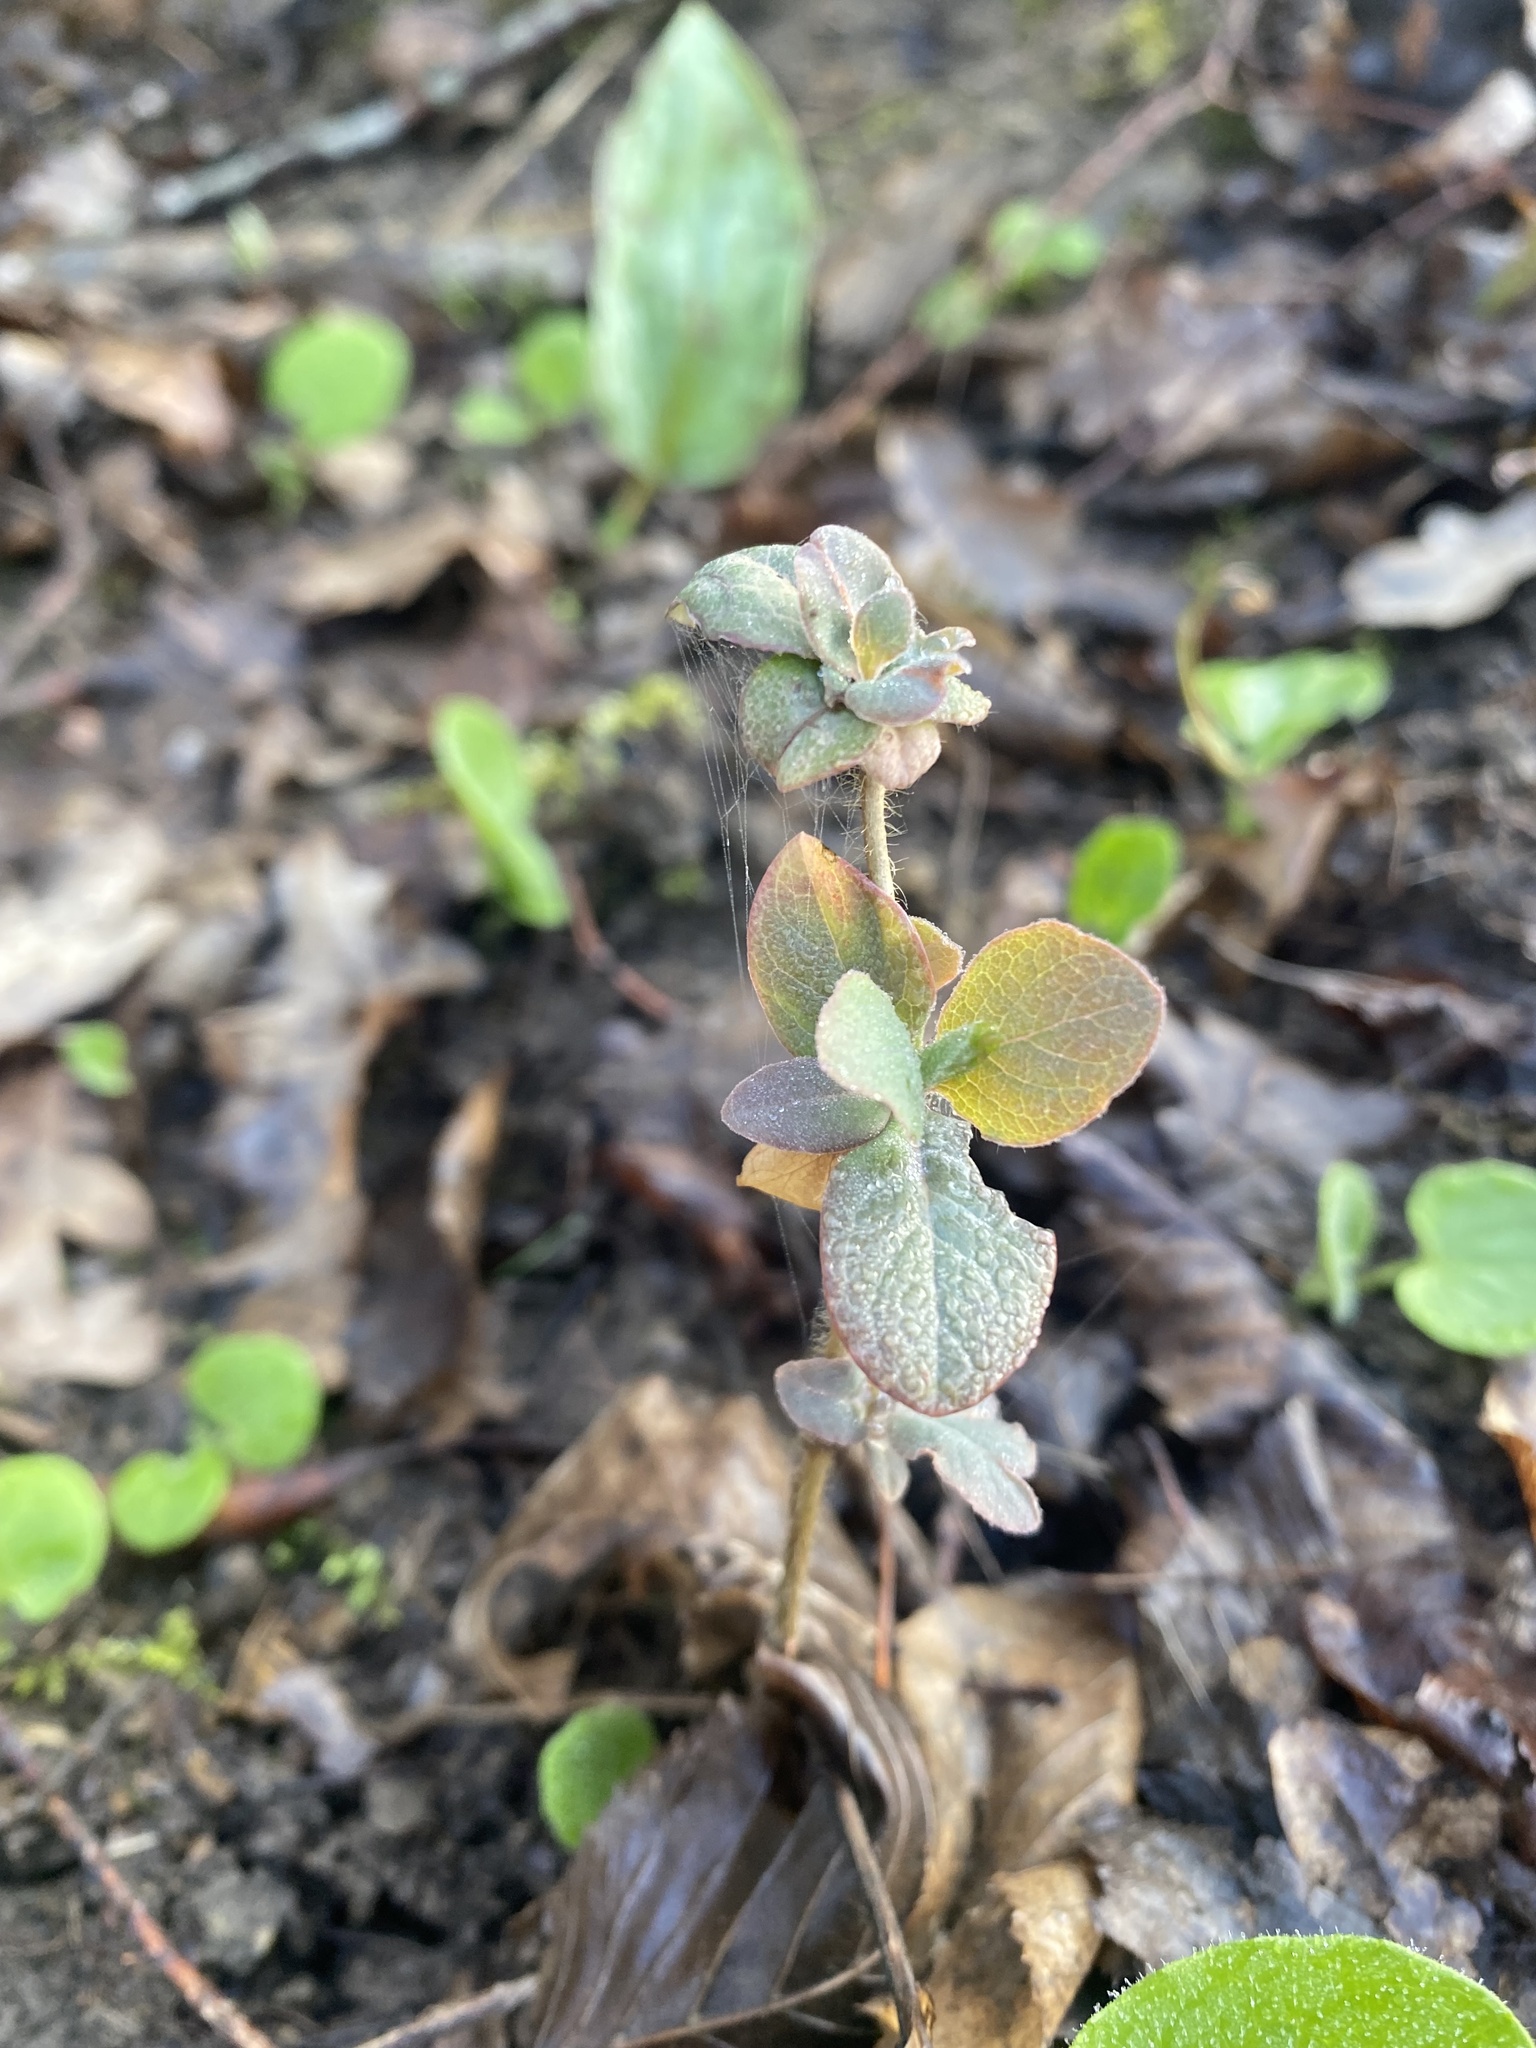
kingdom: Plantae
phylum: Tracheophyta
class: Magnoliopsida
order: Dipsacales
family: Caprifoliaceae
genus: Lonicera
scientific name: Lonicera caprifolium
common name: Perfoliate honeysuckle
